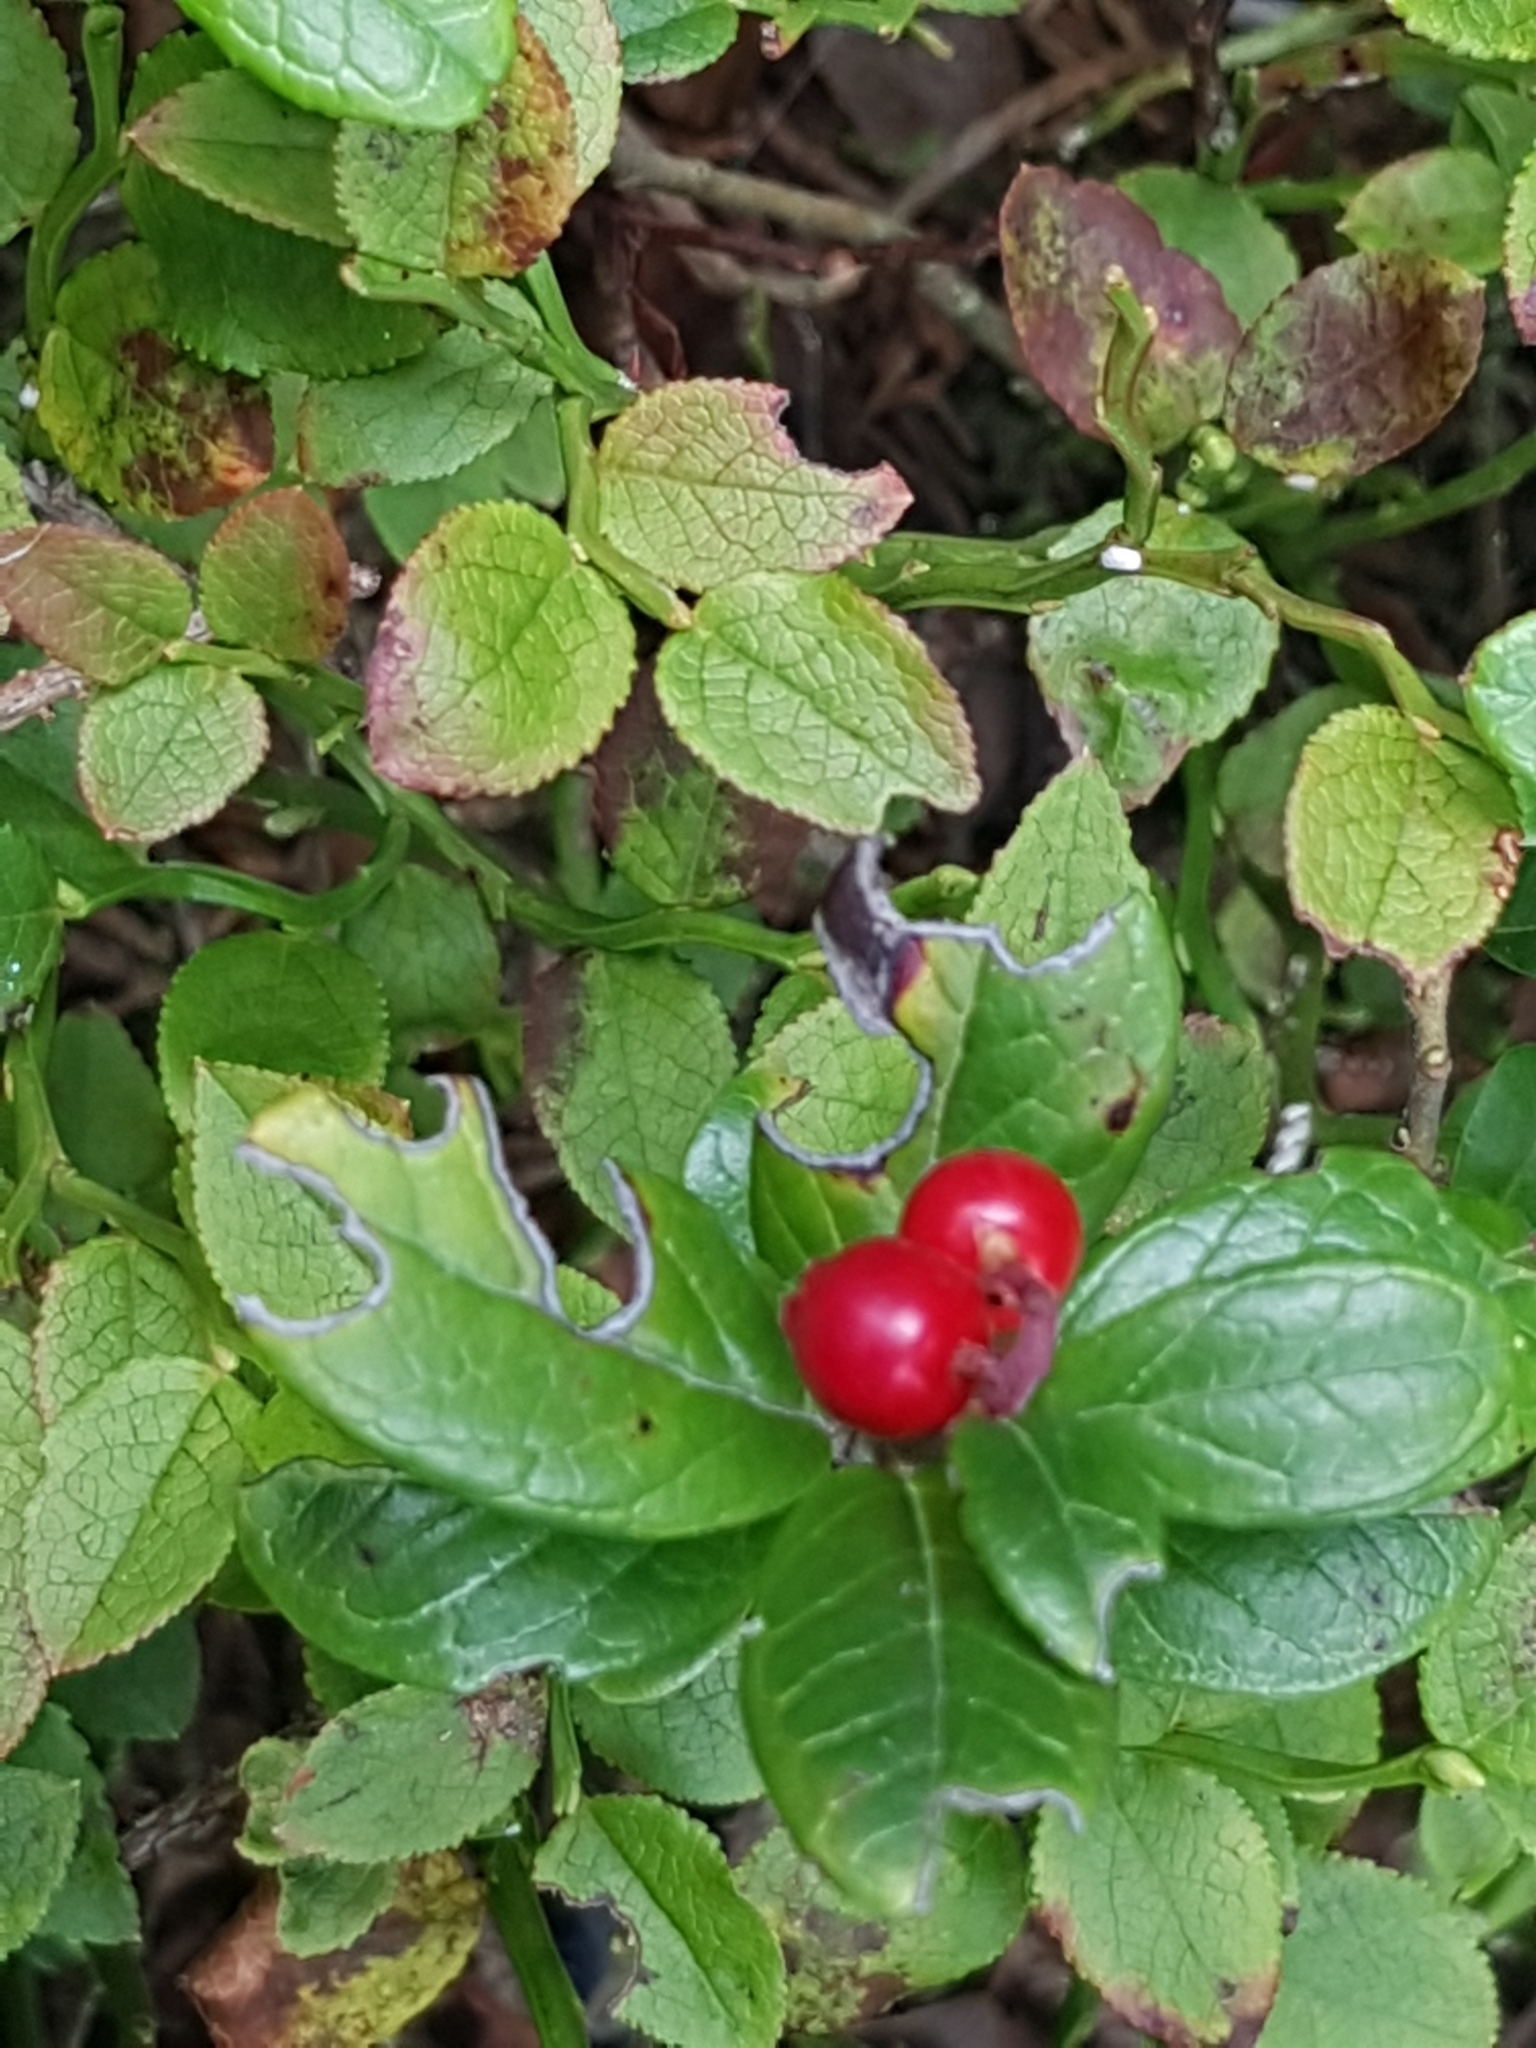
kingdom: Plantae
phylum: Tracheophyta
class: Magnoliopsida
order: Ericales
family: Ericaceae
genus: Vaccinium
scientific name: Vaccinium vitis-idaea
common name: Cowberry
